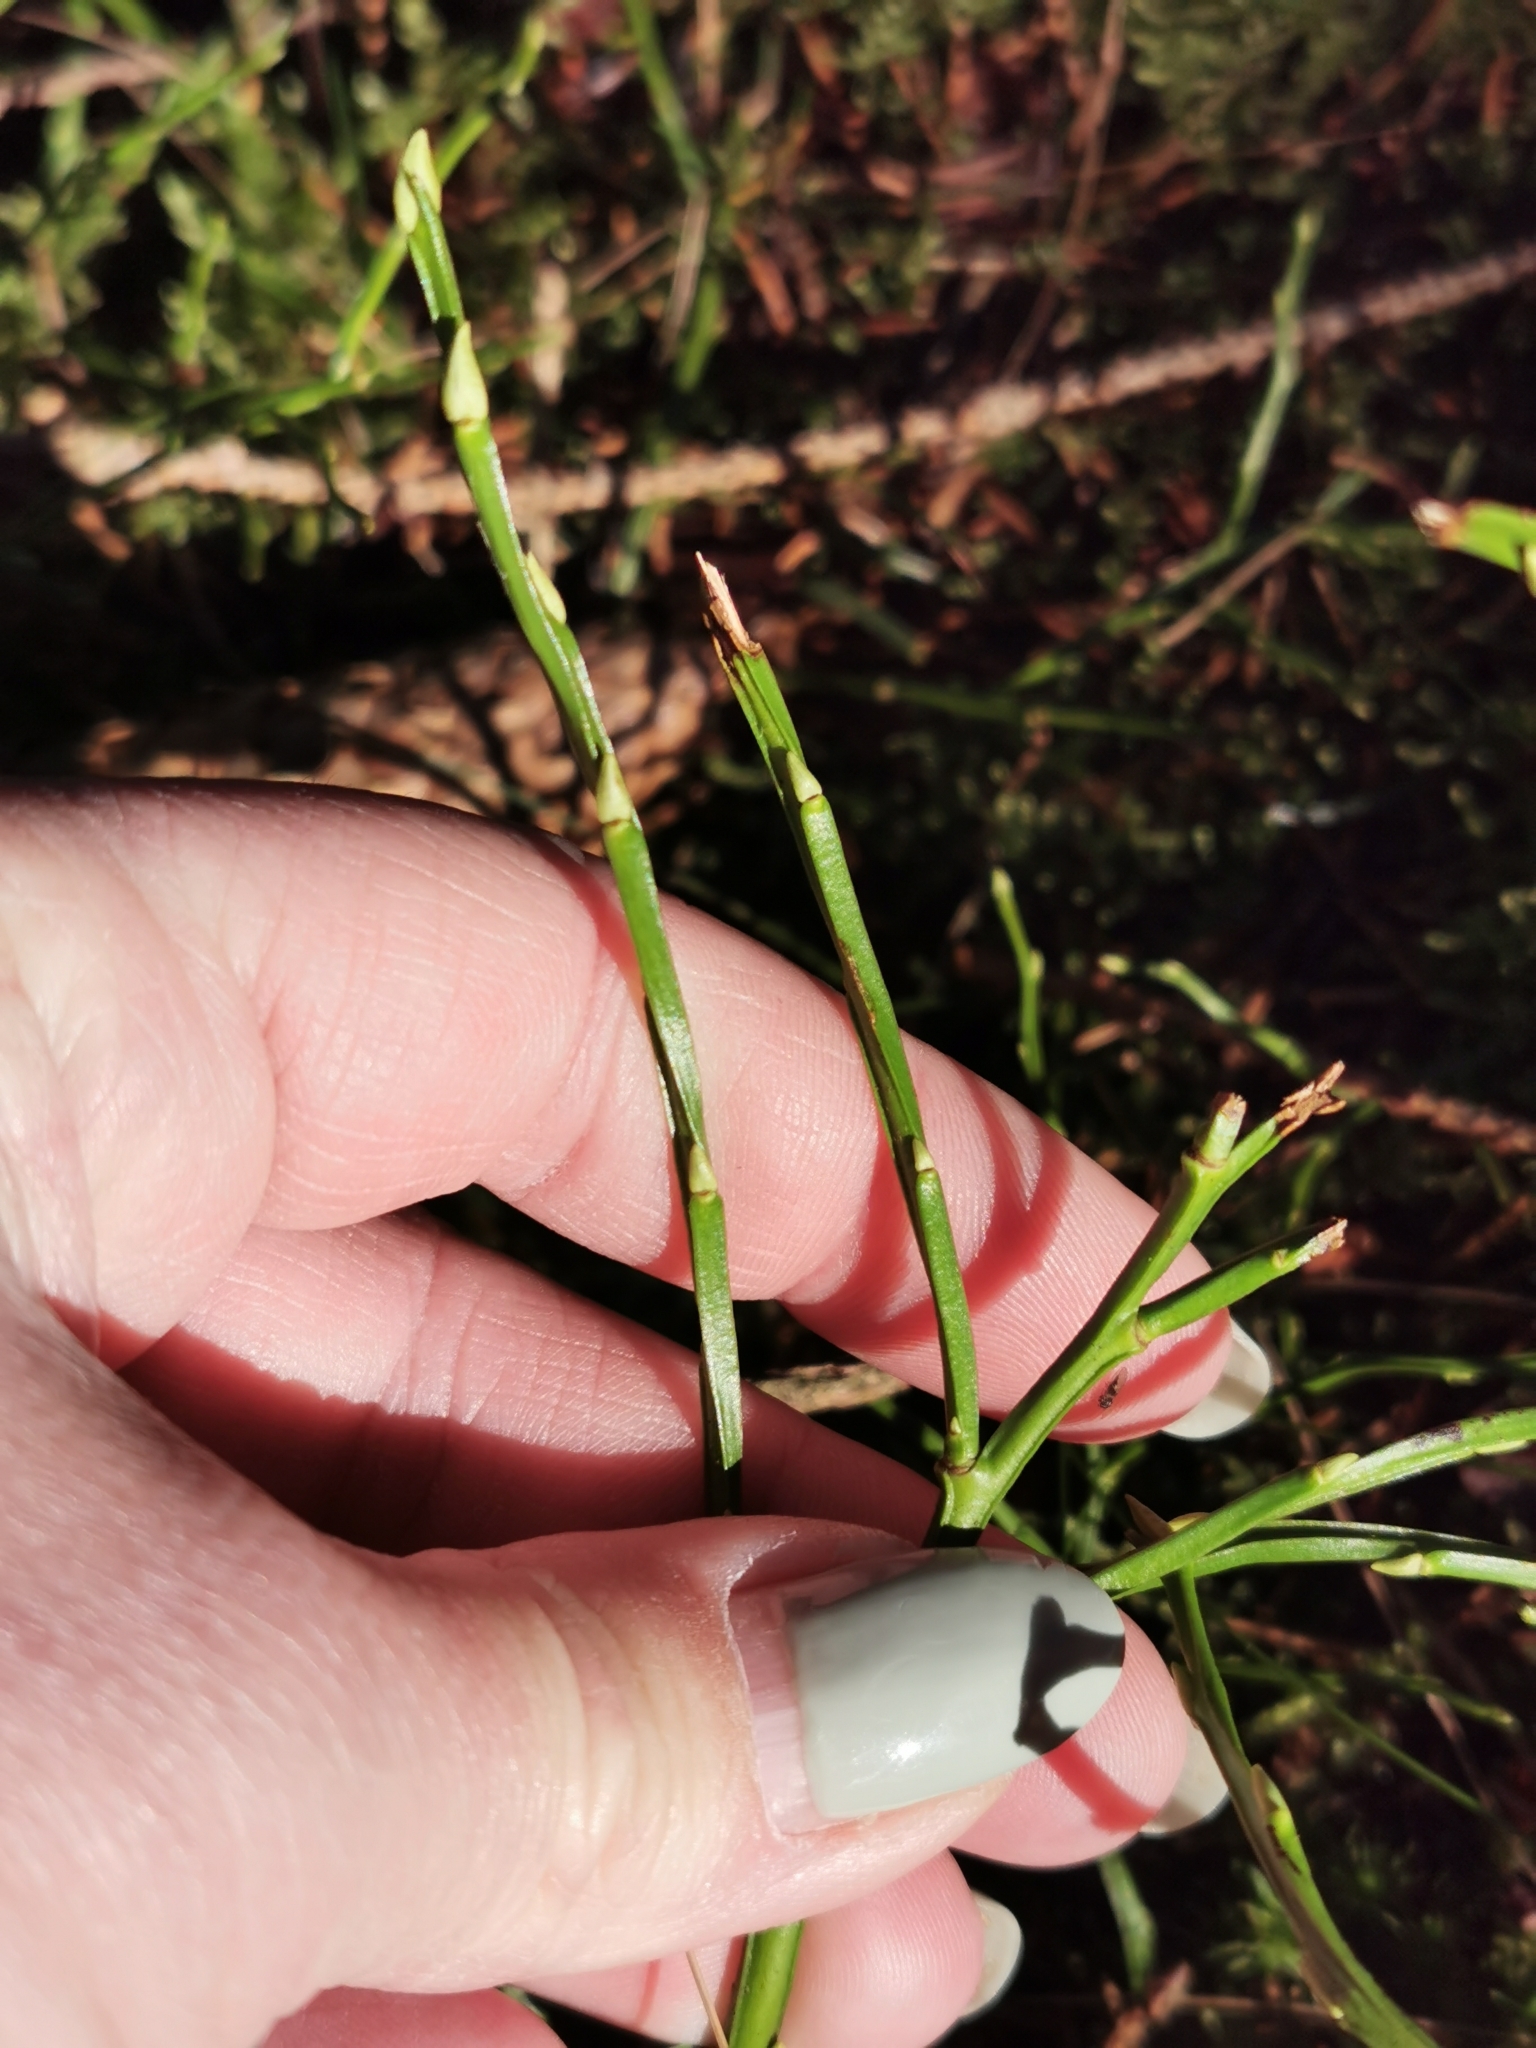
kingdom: Plantae
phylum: Tracheophyta
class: Magnoliopsida
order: Ericales
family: Ericaceae
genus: Vaccinium
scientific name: Vaccinium myrtillus
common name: Bilberry
